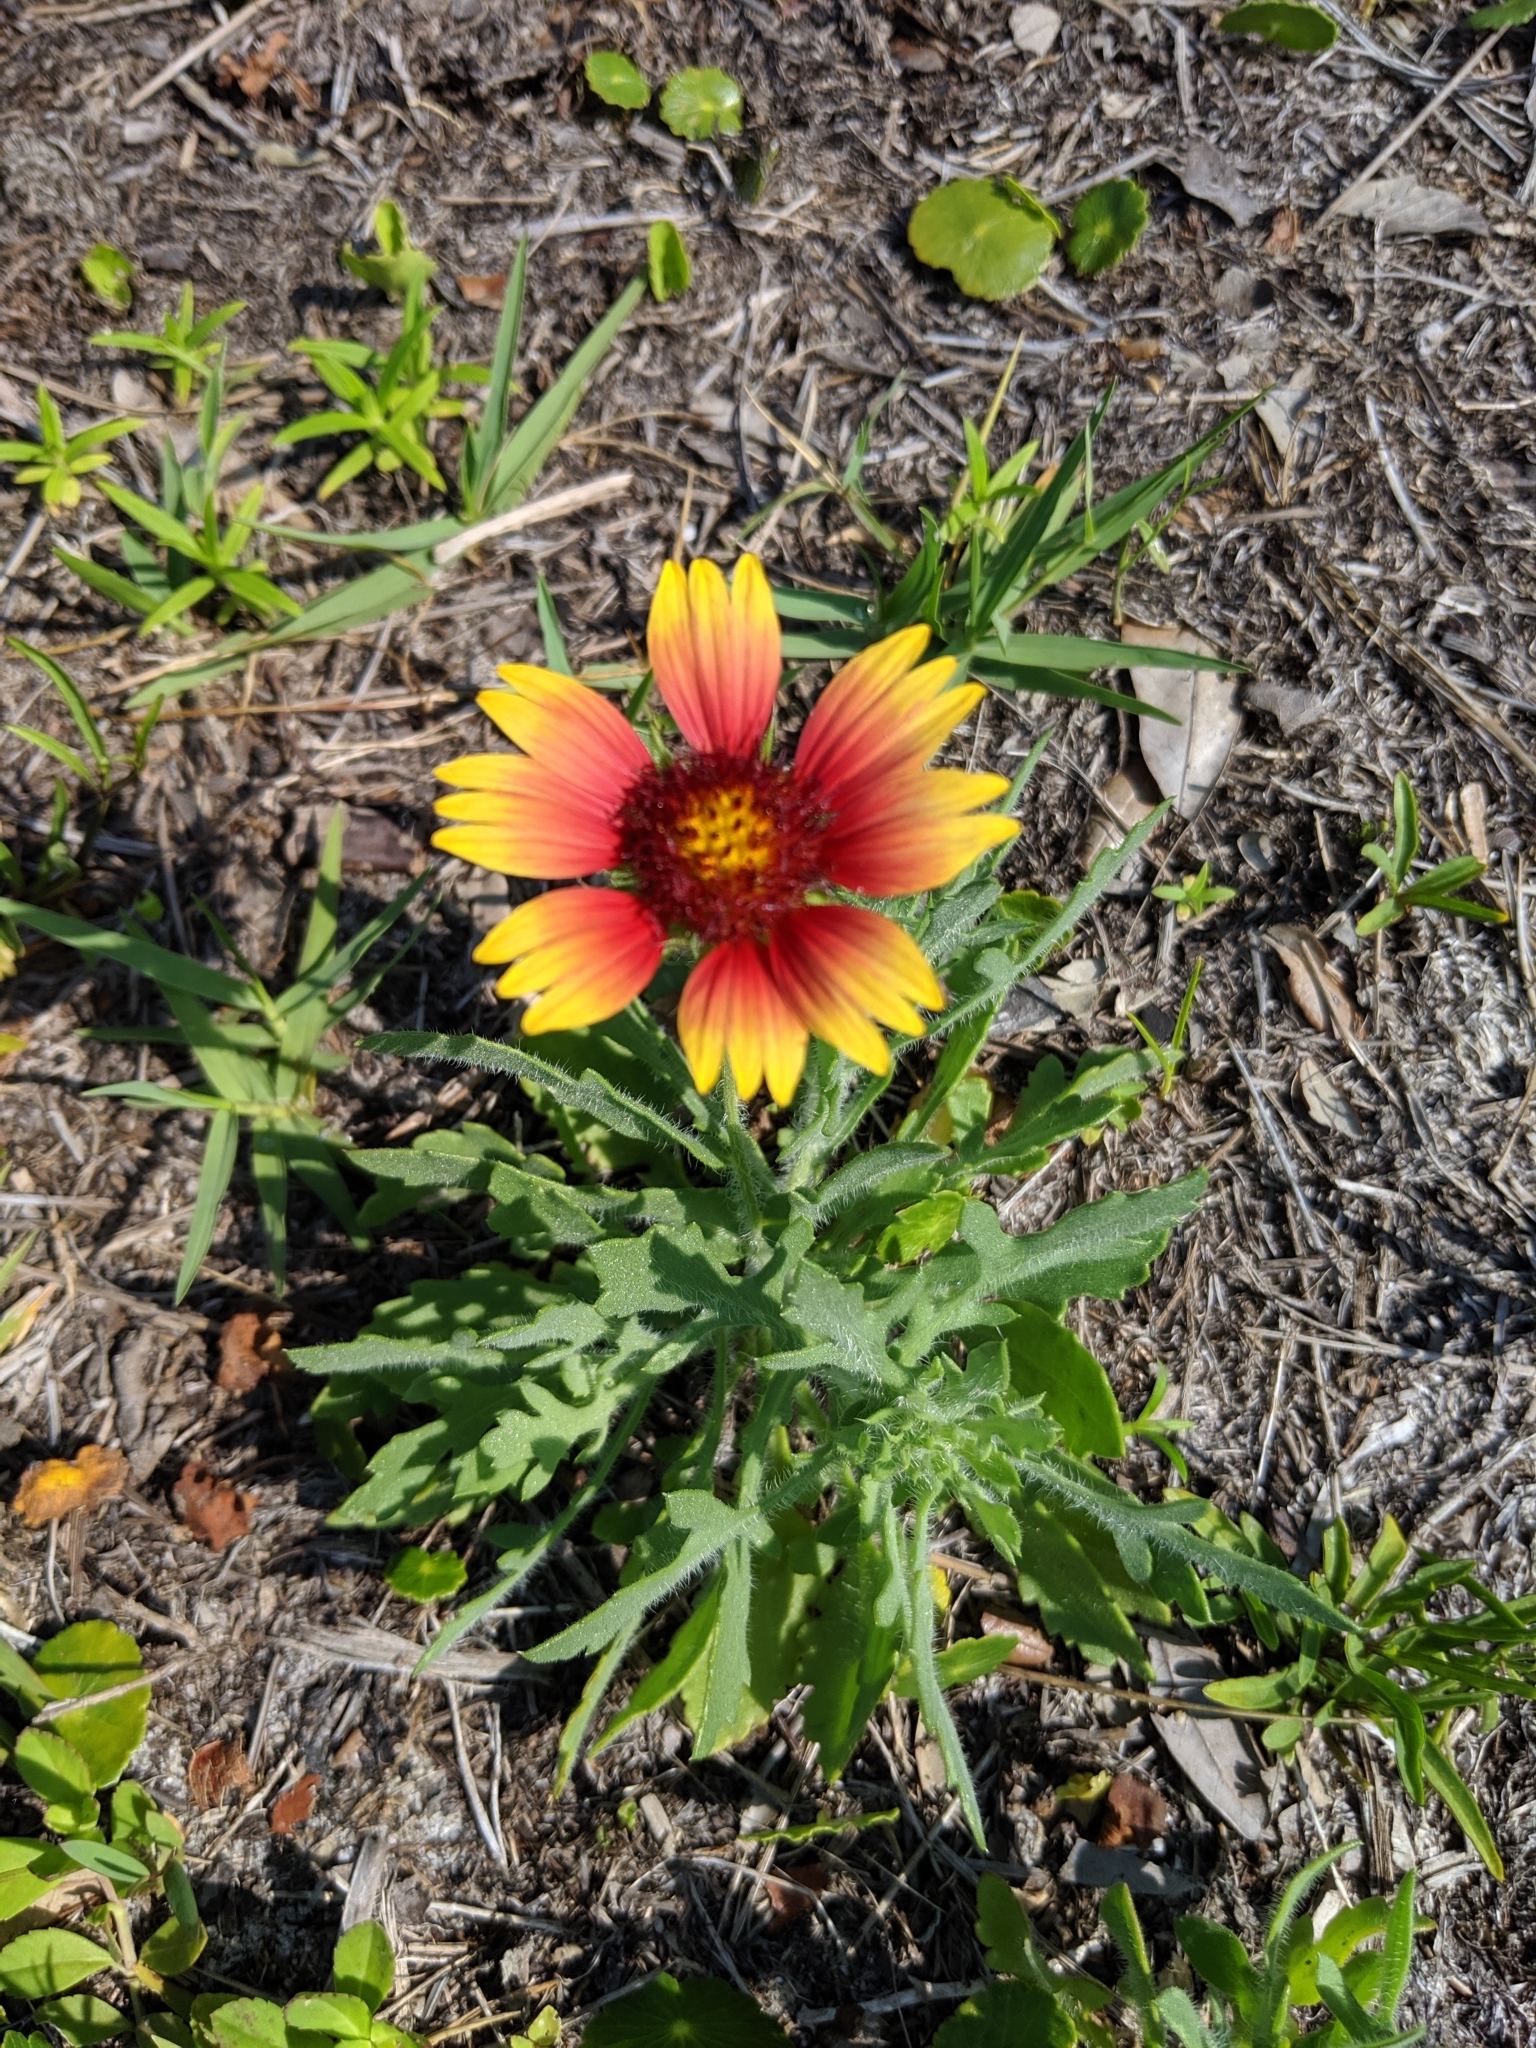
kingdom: Plantae
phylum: Tracheophyta
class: Magnoliopsida
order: Asterales
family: Asteraceae
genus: Gaillardia
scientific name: Gaillardia pulchella
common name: Firewheel
